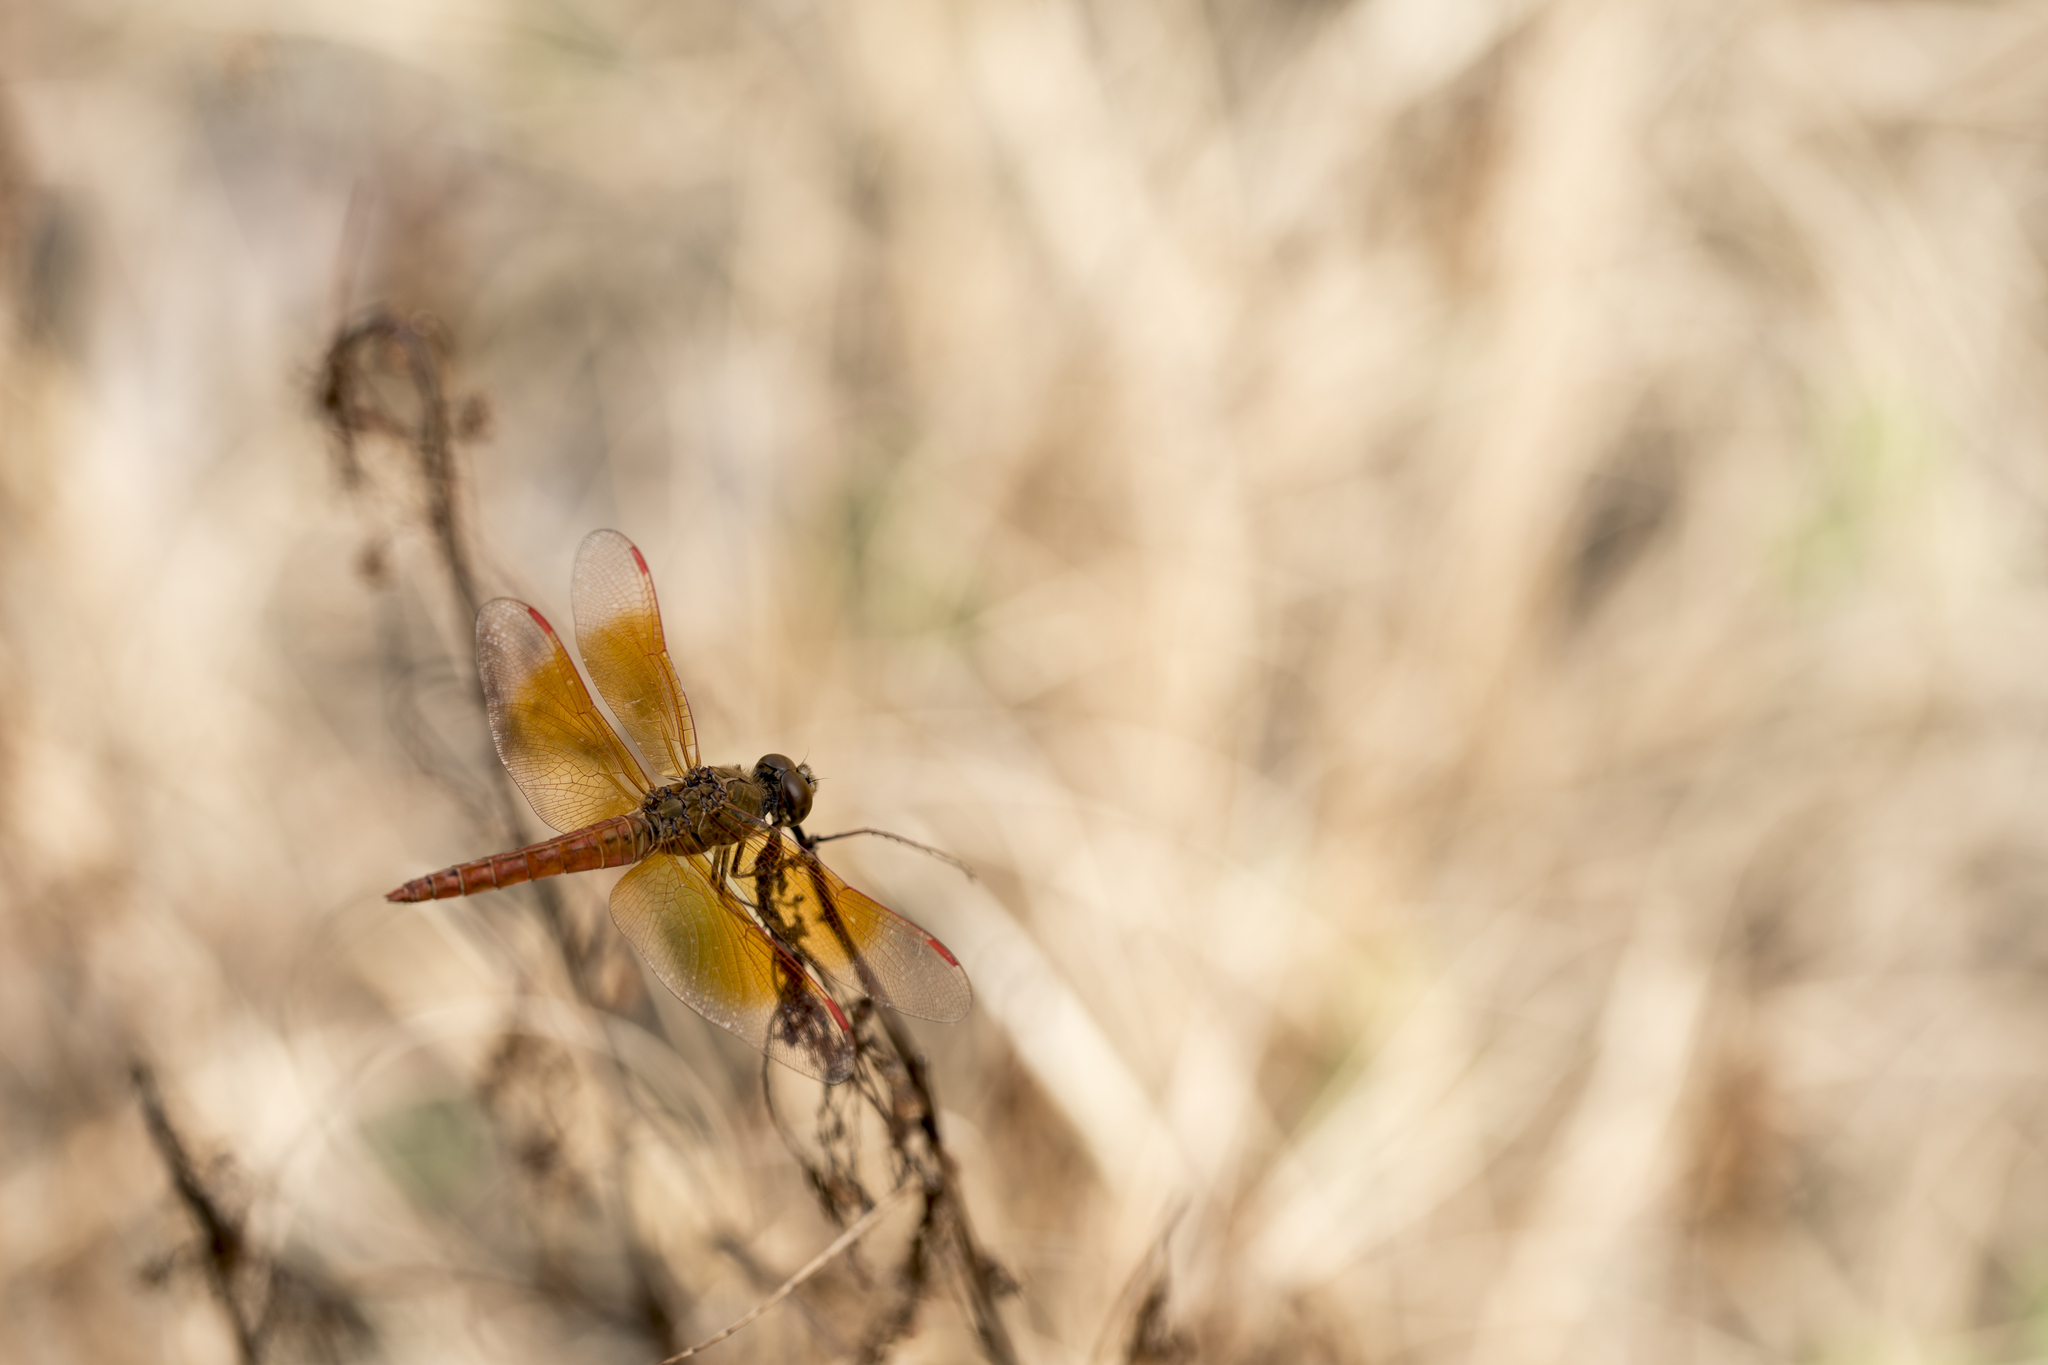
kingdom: Animalia
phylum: Arthropoda
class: Insecta
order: Odonata
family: Libellulidae
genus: Brachythemis
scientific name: Brachythemis contaminata
